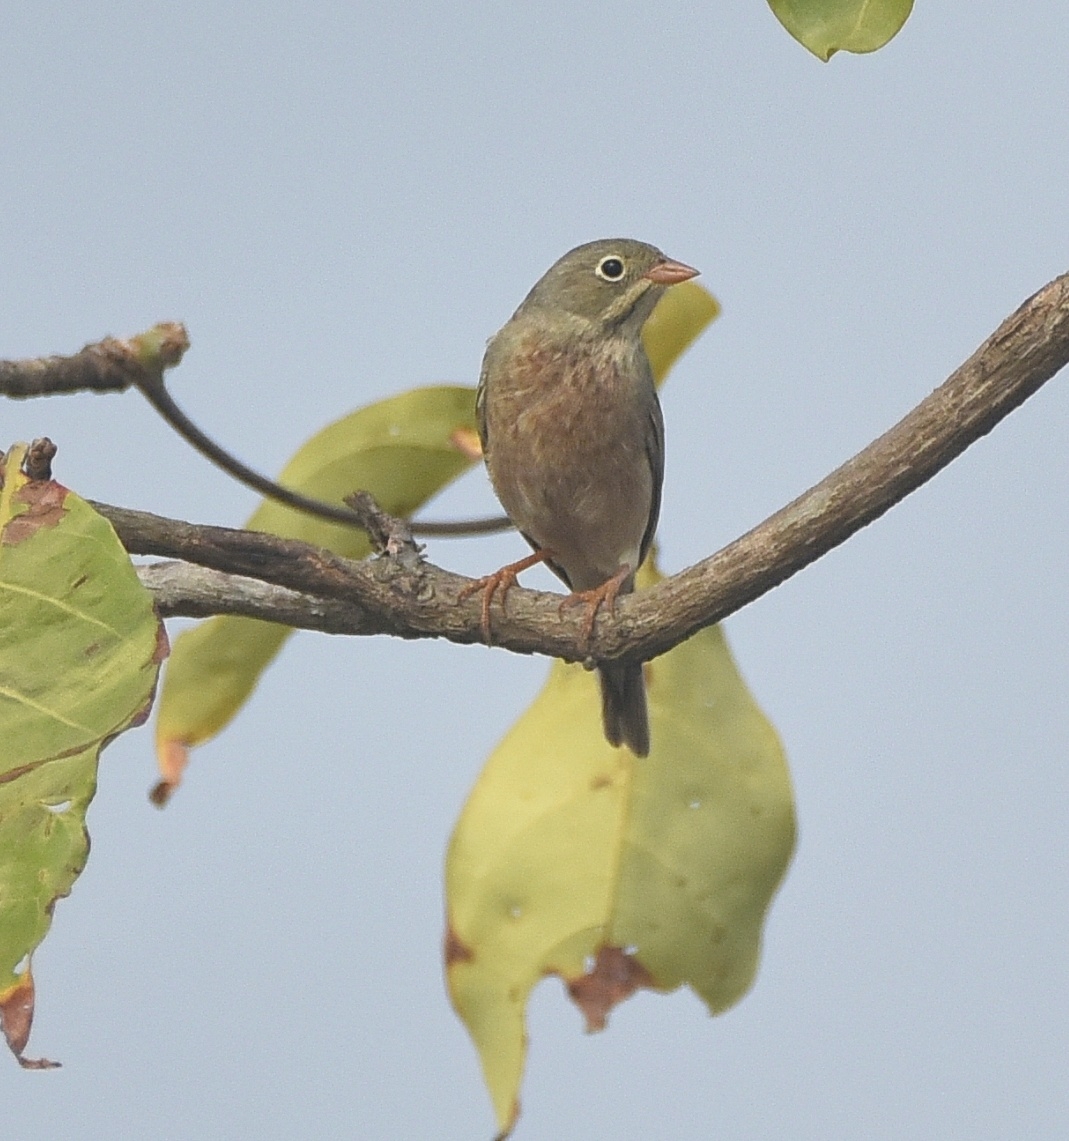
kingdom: Animalia
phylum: Chordata
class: Aves
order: Passeriformes
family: Emberizidae
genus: Emberiza
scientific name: Emberiza buchanani
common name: Grey-necked bunting
